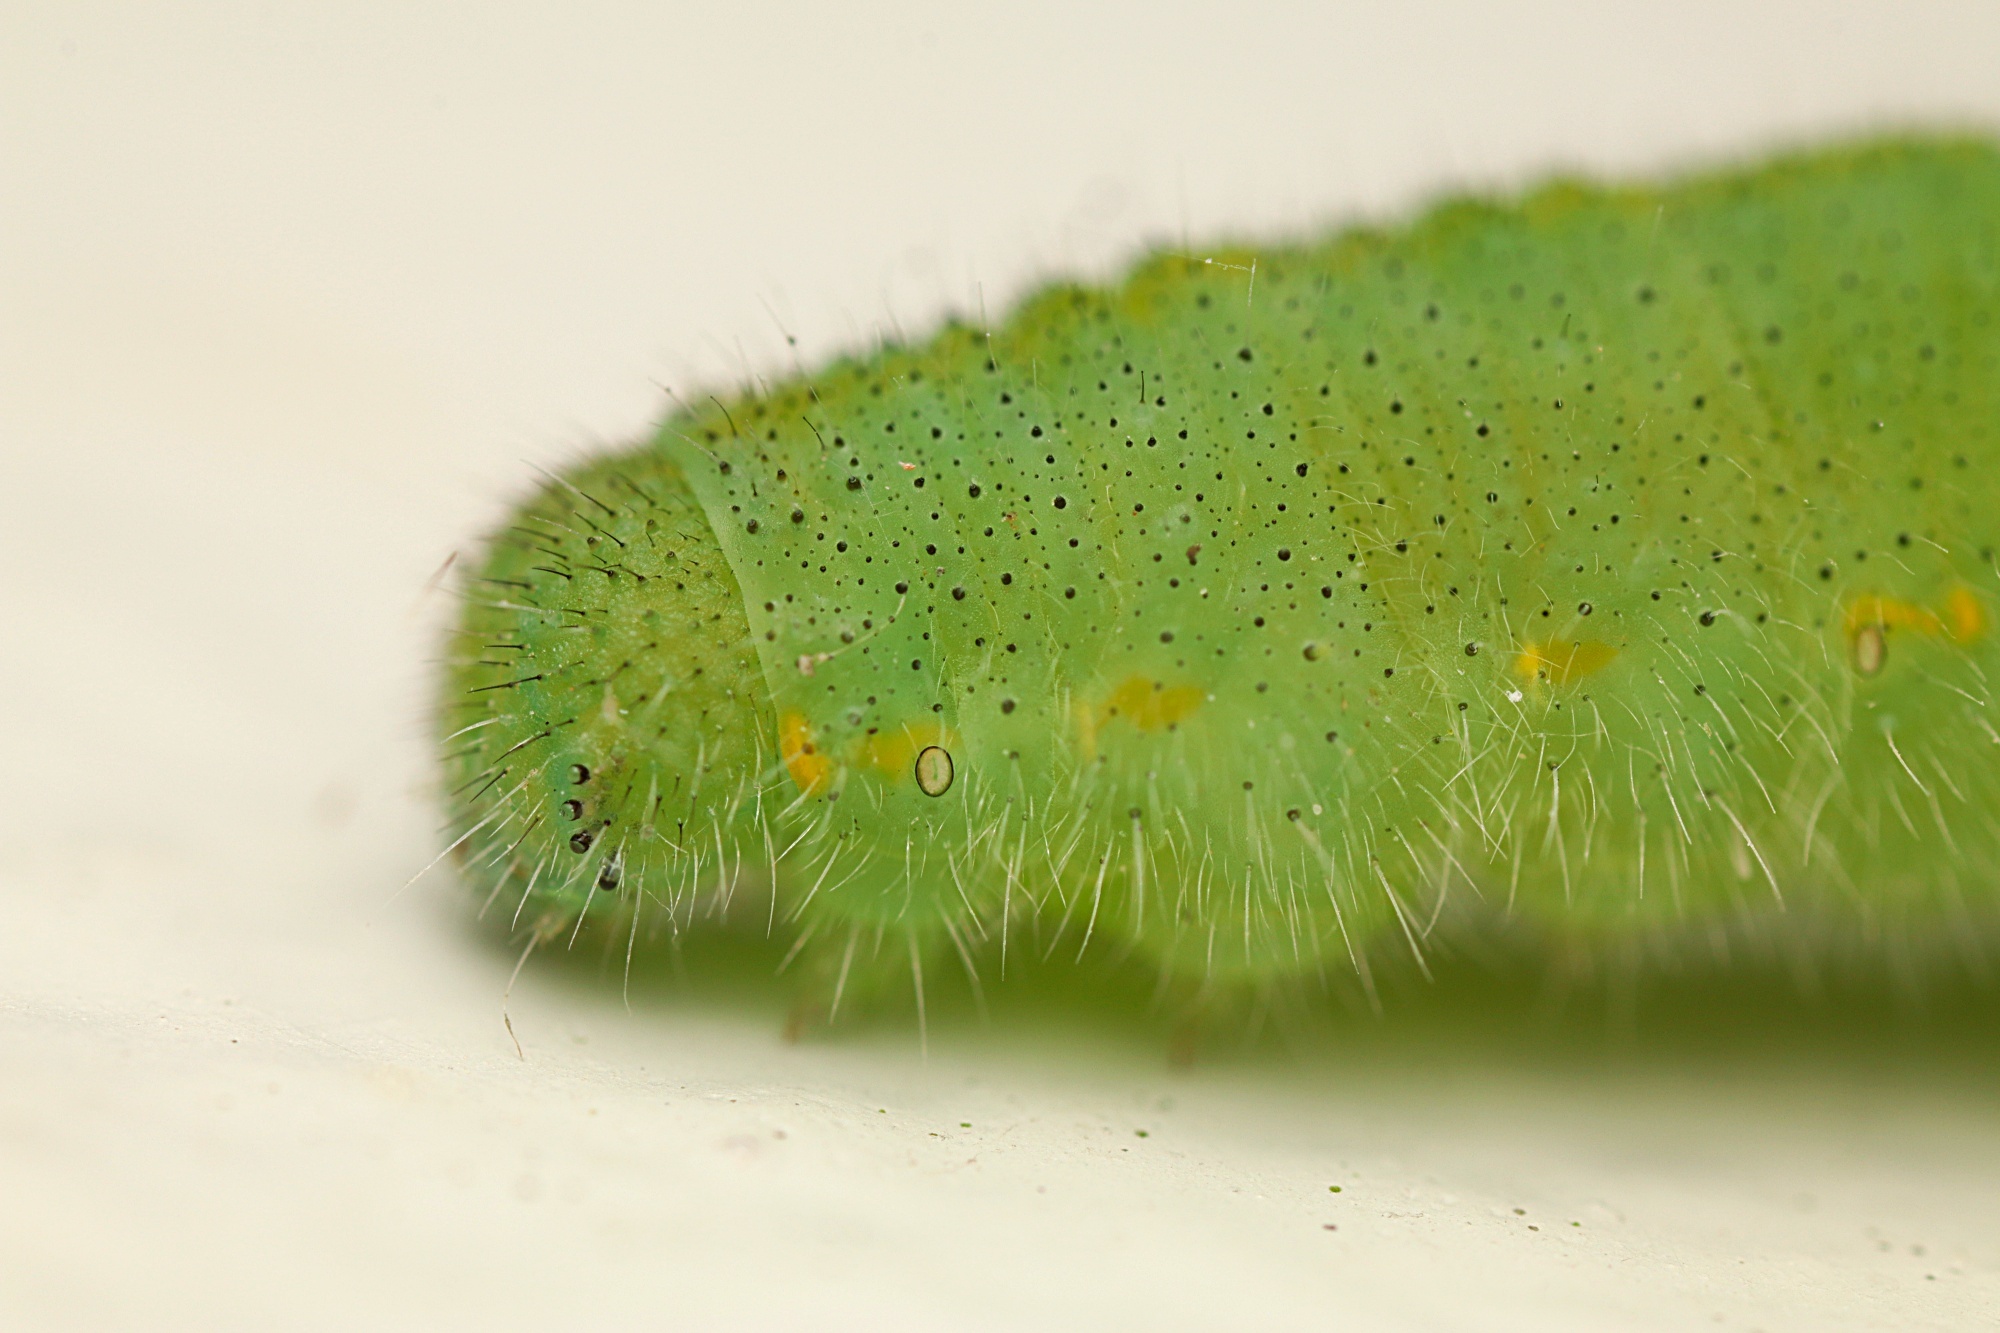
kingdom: Animalia
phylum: Arthropoda
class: Insecta
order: Lepidoptera
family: Pieridae
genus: Pieris
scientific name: Pieris rapae
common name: Small white
